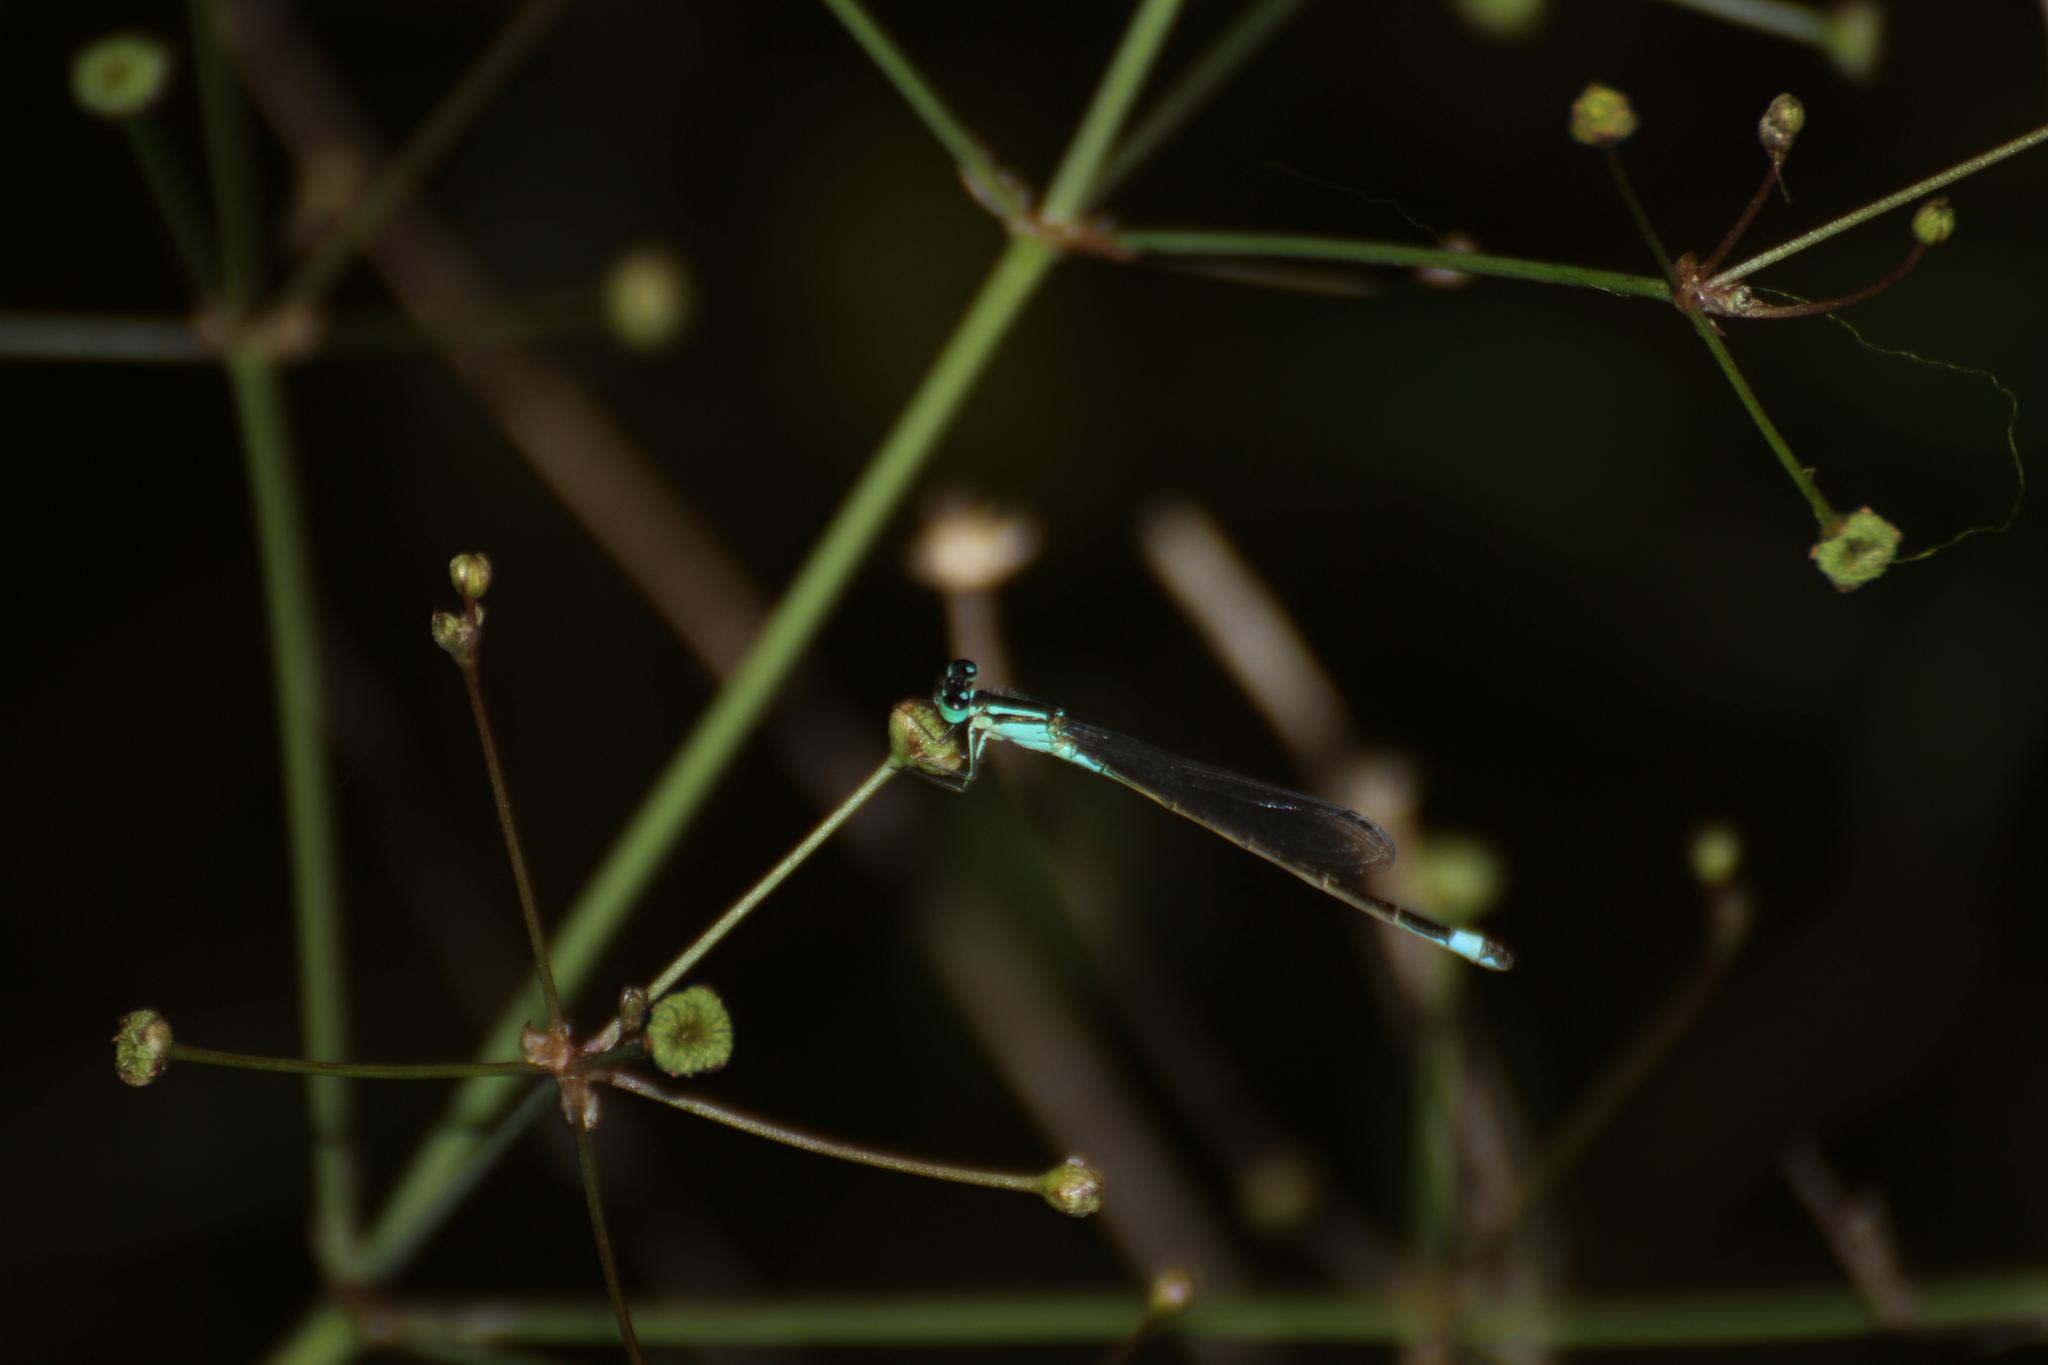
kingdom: Animalia
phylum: Arthropoda
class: Insecta
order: Odonata
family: Coenagrionidae
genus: Ischnura
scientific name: Ischnura elegans
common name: Blue-tailed damselfly
